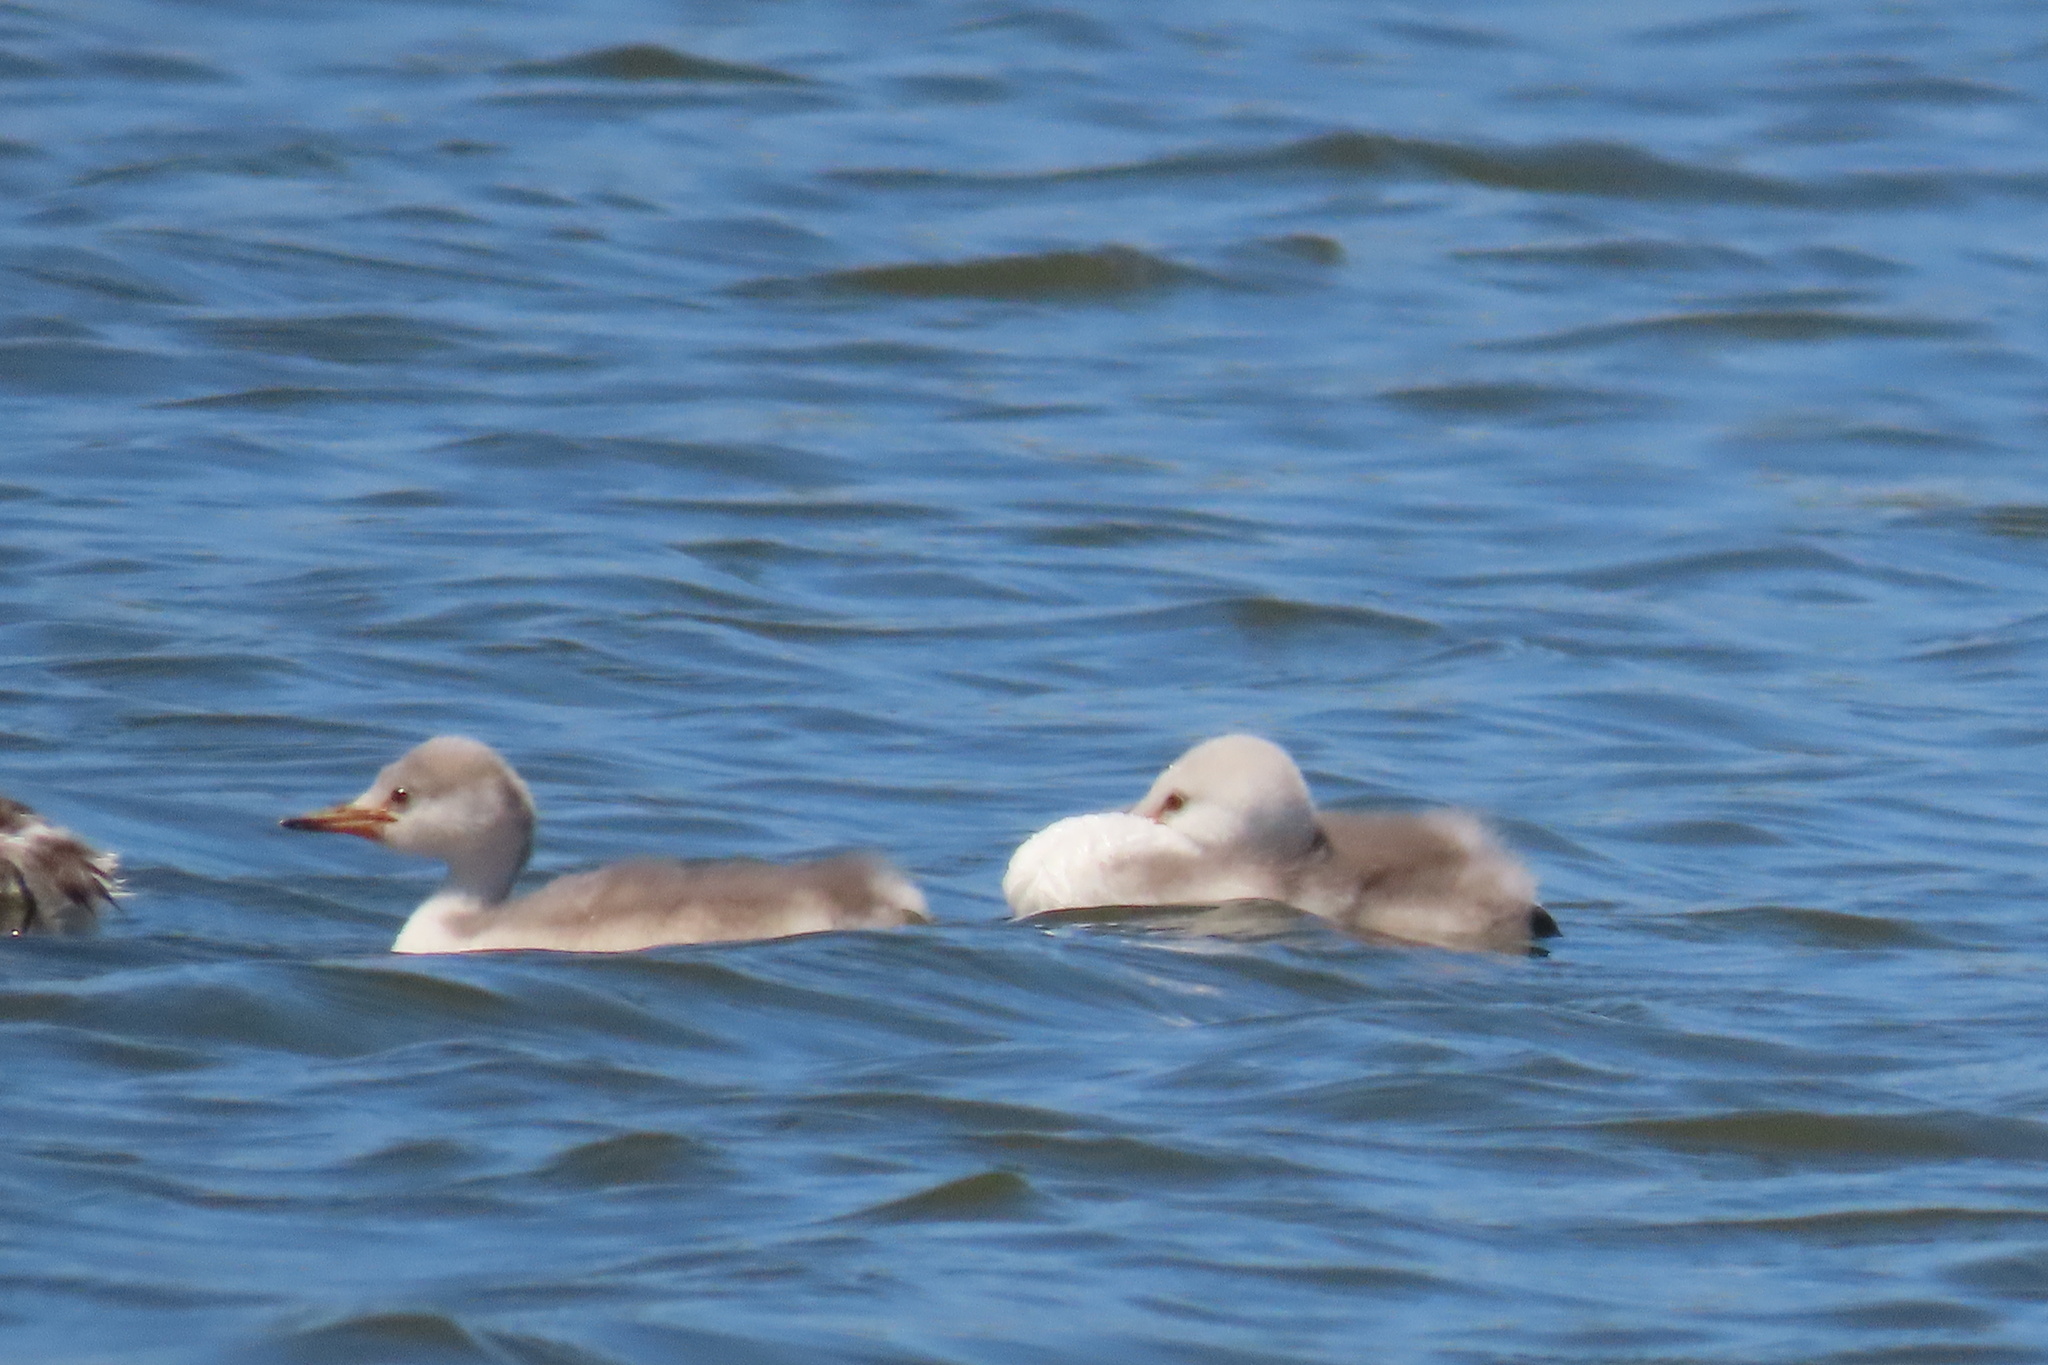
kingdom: Animalia
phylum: Chordata
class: Aves
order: Podicipediformes
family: Podicipedidae
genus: Aechmophorus
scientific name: Aechmophorus
